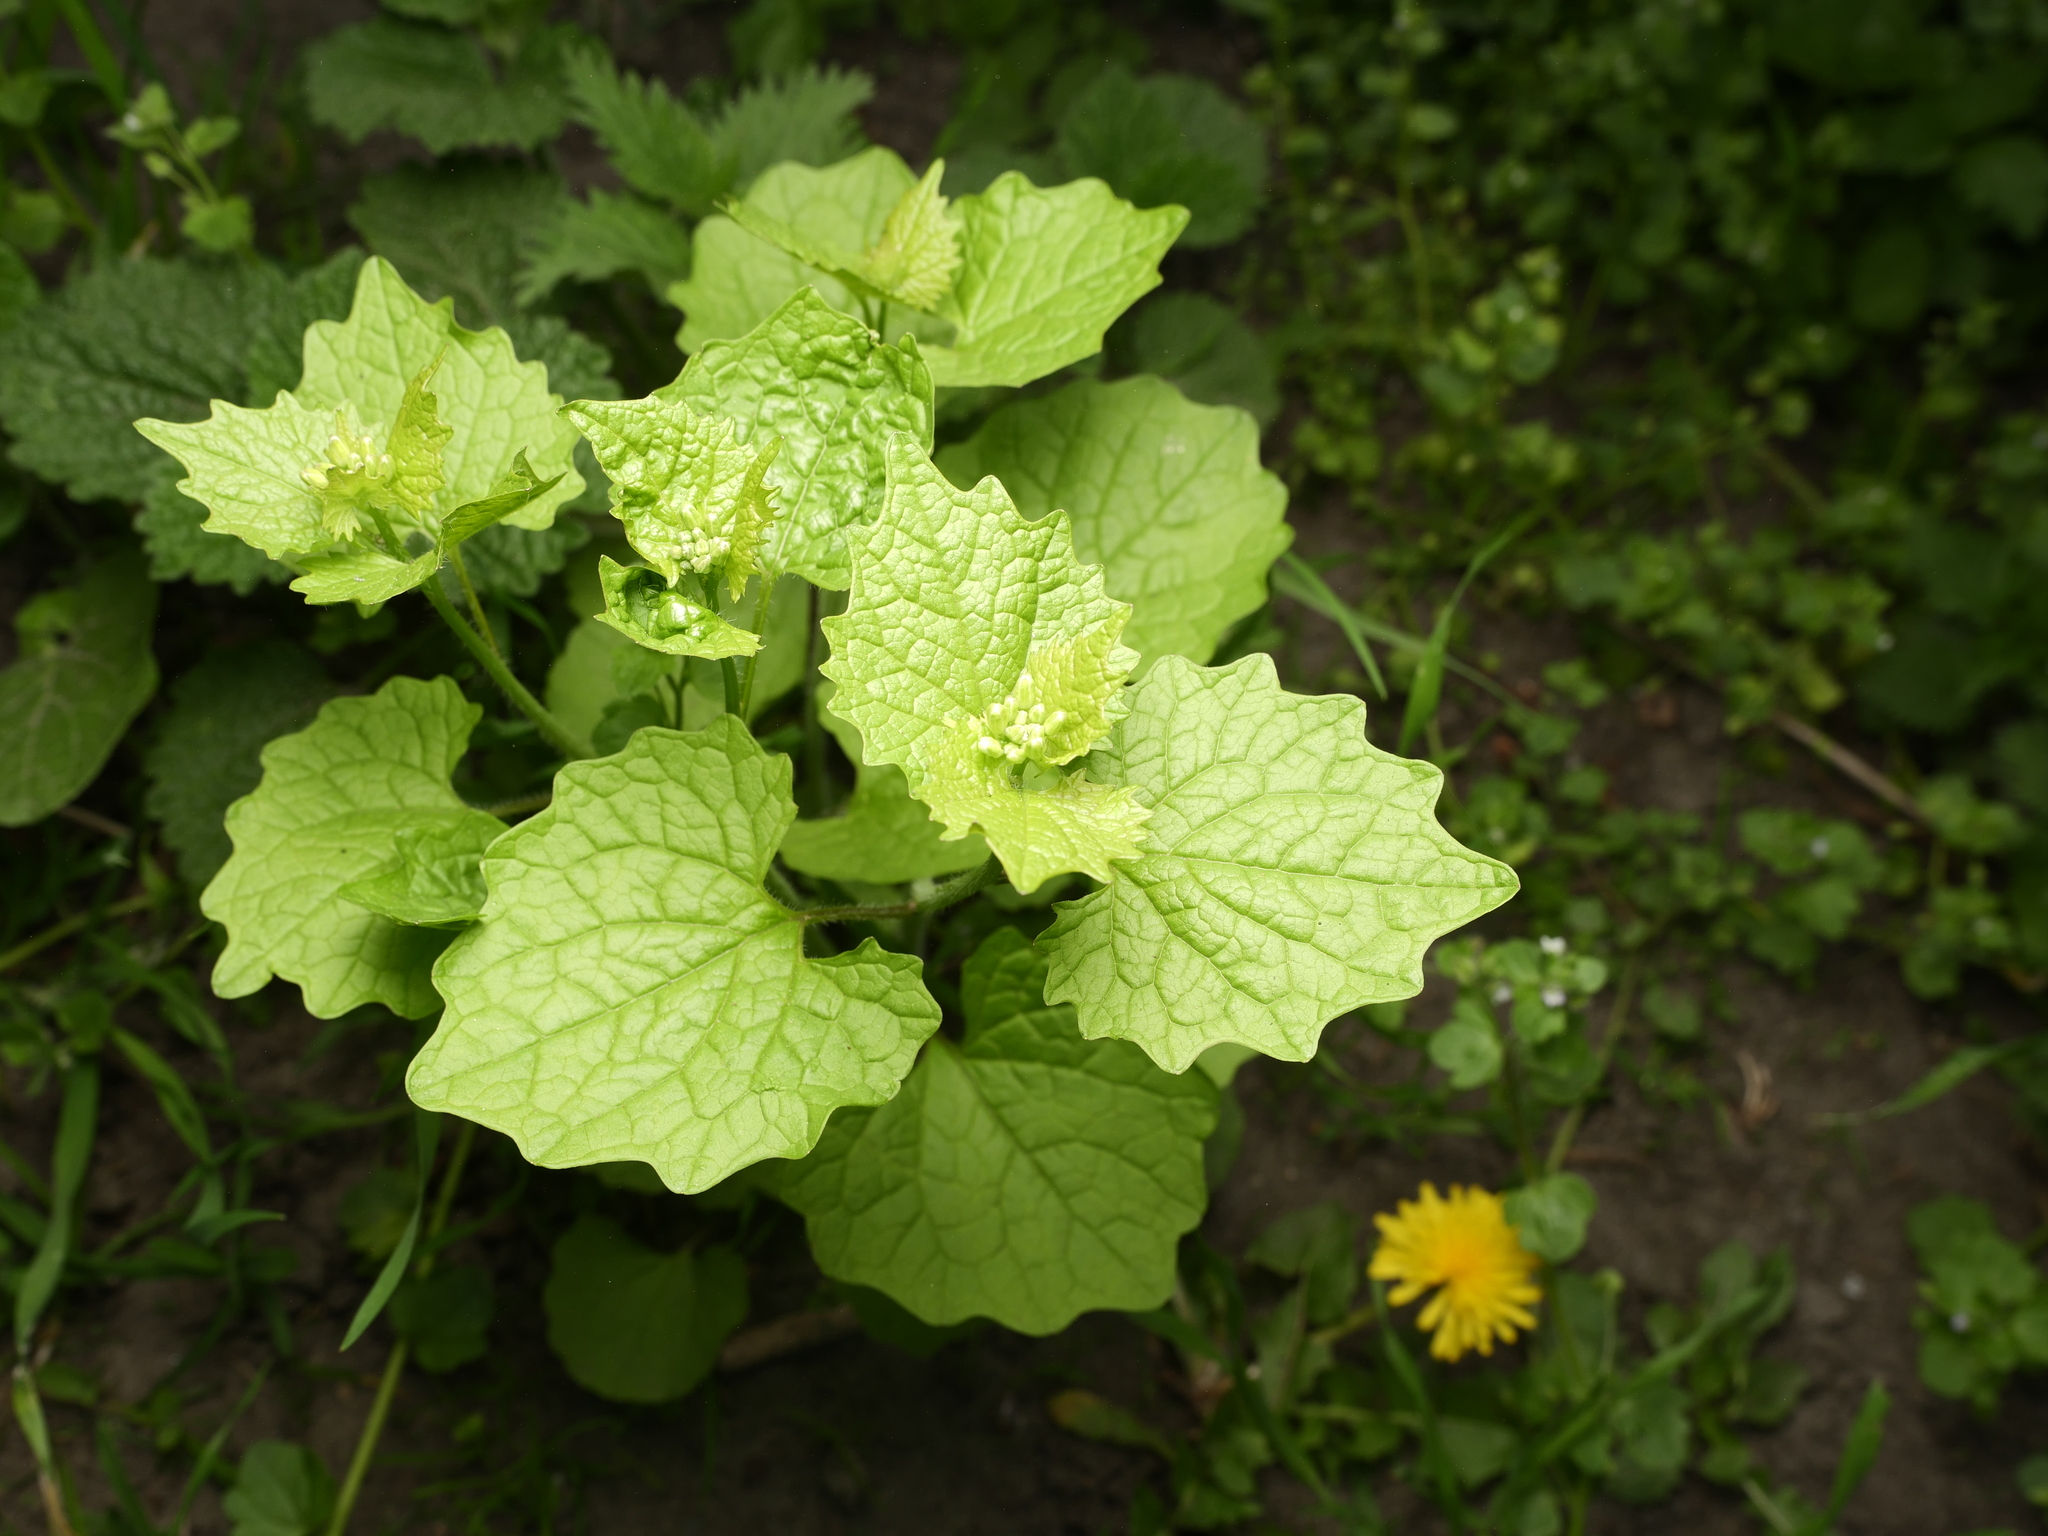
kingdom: Plantae
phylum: Tracheophyta
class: Magnoliopsida
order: Brassicales
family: Brassicaceae
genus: Alliaria
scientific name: Alliaria petiolata
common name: Garlic mustard
